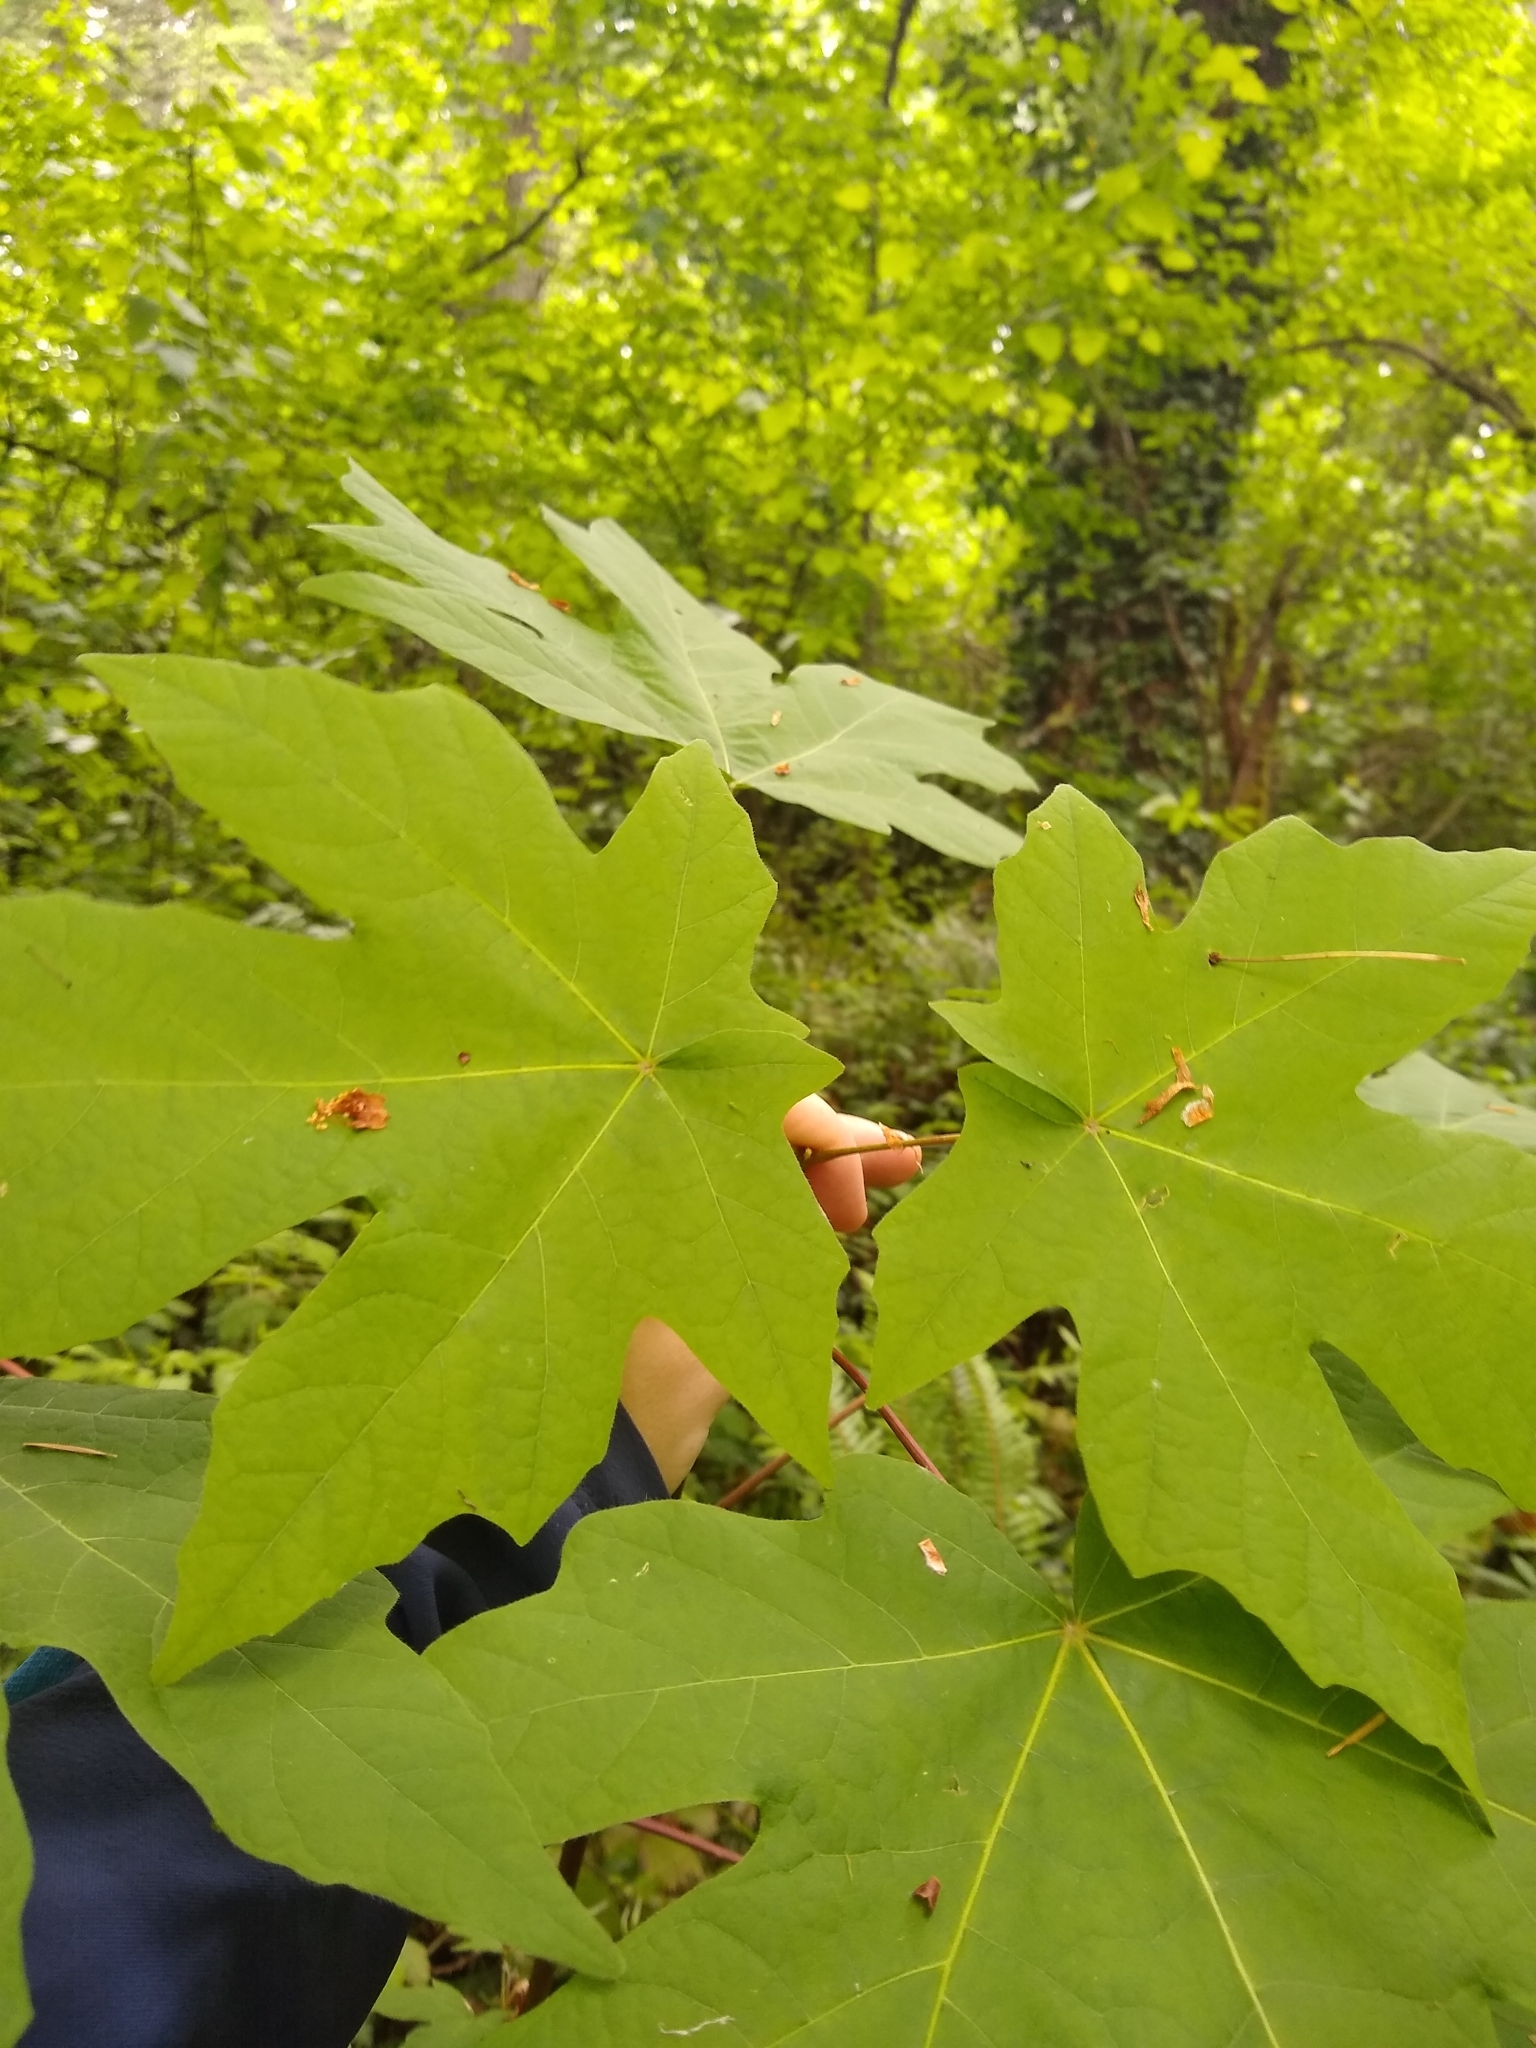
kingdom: Plantae
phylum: Tracheophyta
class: Magnoliopsida
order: Sapindales
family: Sapindaceae
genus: Acer
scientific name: Acer macrophyllum
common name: Oregon maple
